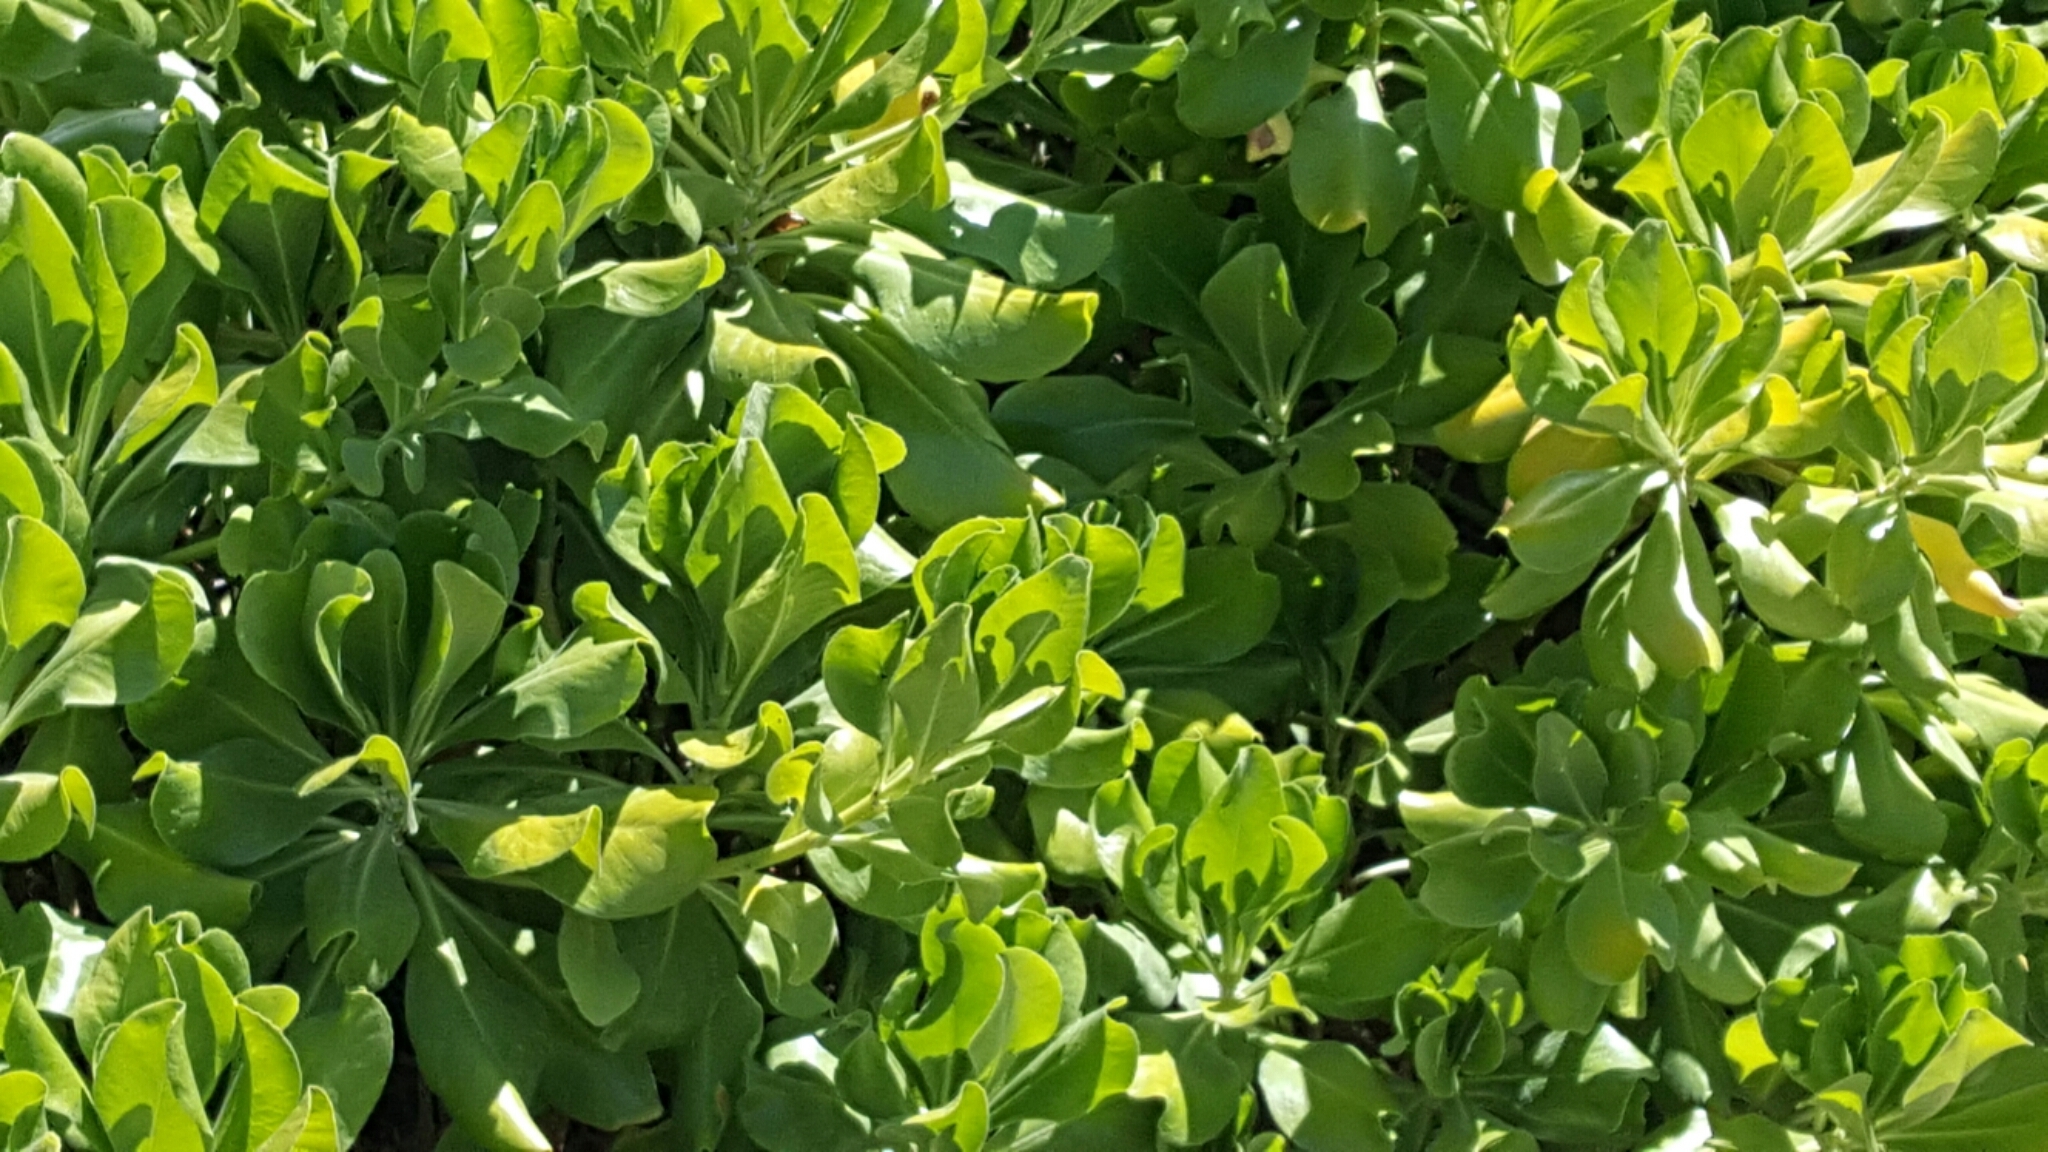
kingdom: Plantae
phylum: Tracheophyta
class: Magnoliopsida
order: Asterales
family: Goodeniaceae
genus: Scaevola
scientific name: Scaevola taccada
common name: Sea lettucetree
